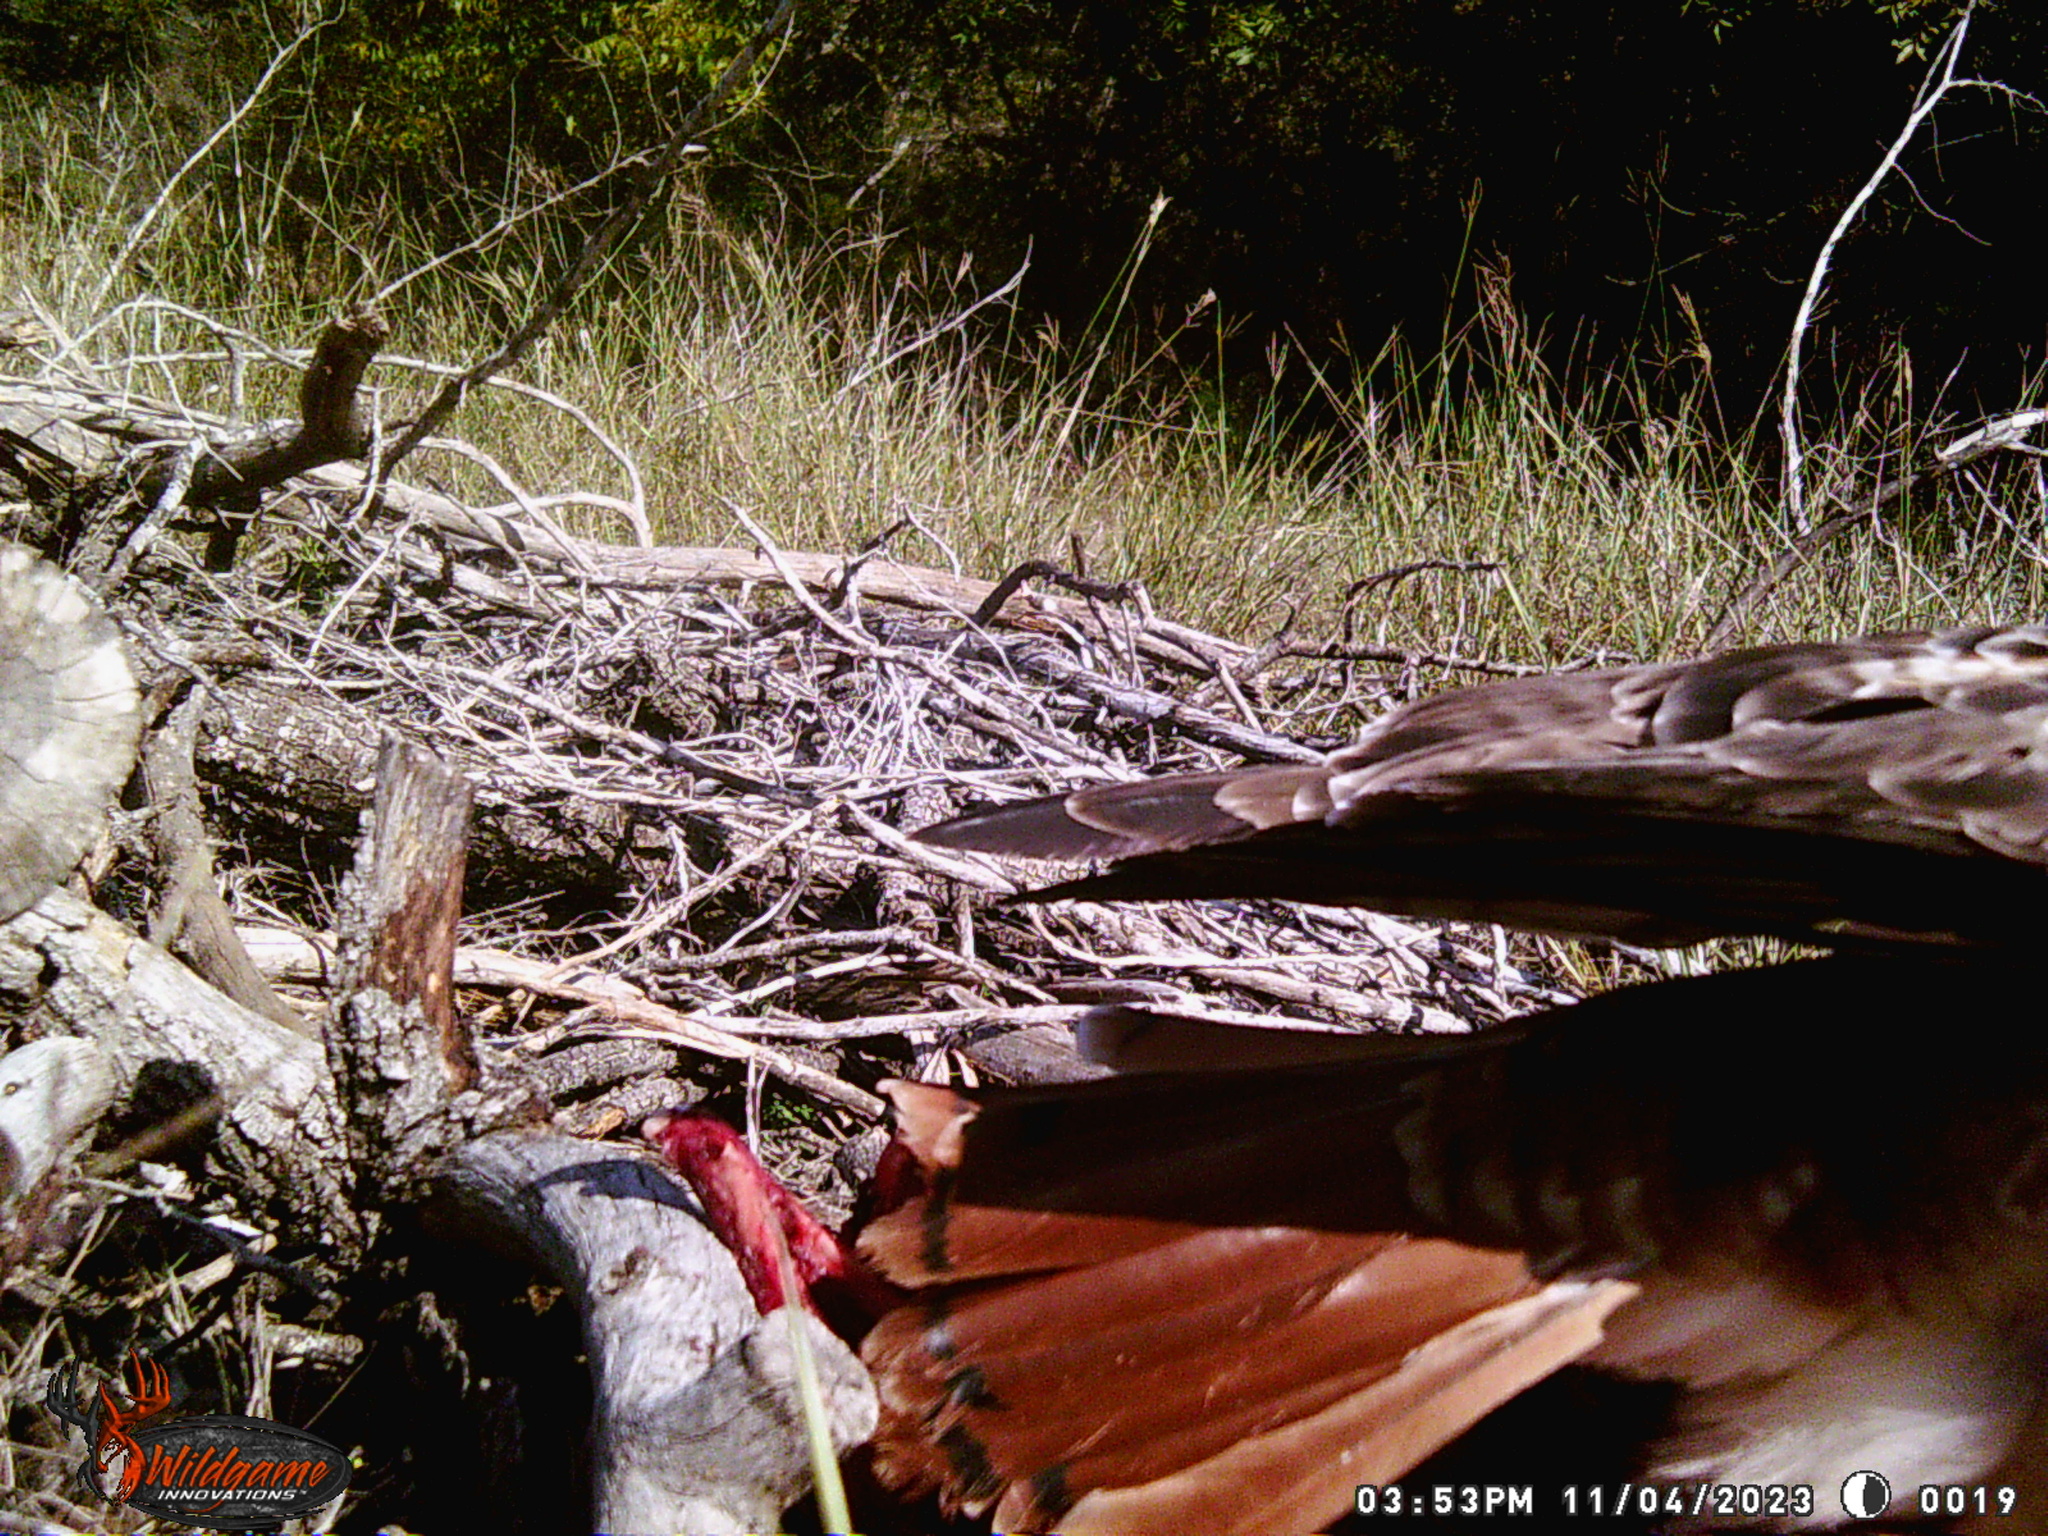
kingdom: Animalia
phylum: Chordata
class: Aves
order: Accipitriformes
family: Accipitridae
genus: Buteo
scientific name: Buteo jamaicensis
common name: Red-tailed hawk
